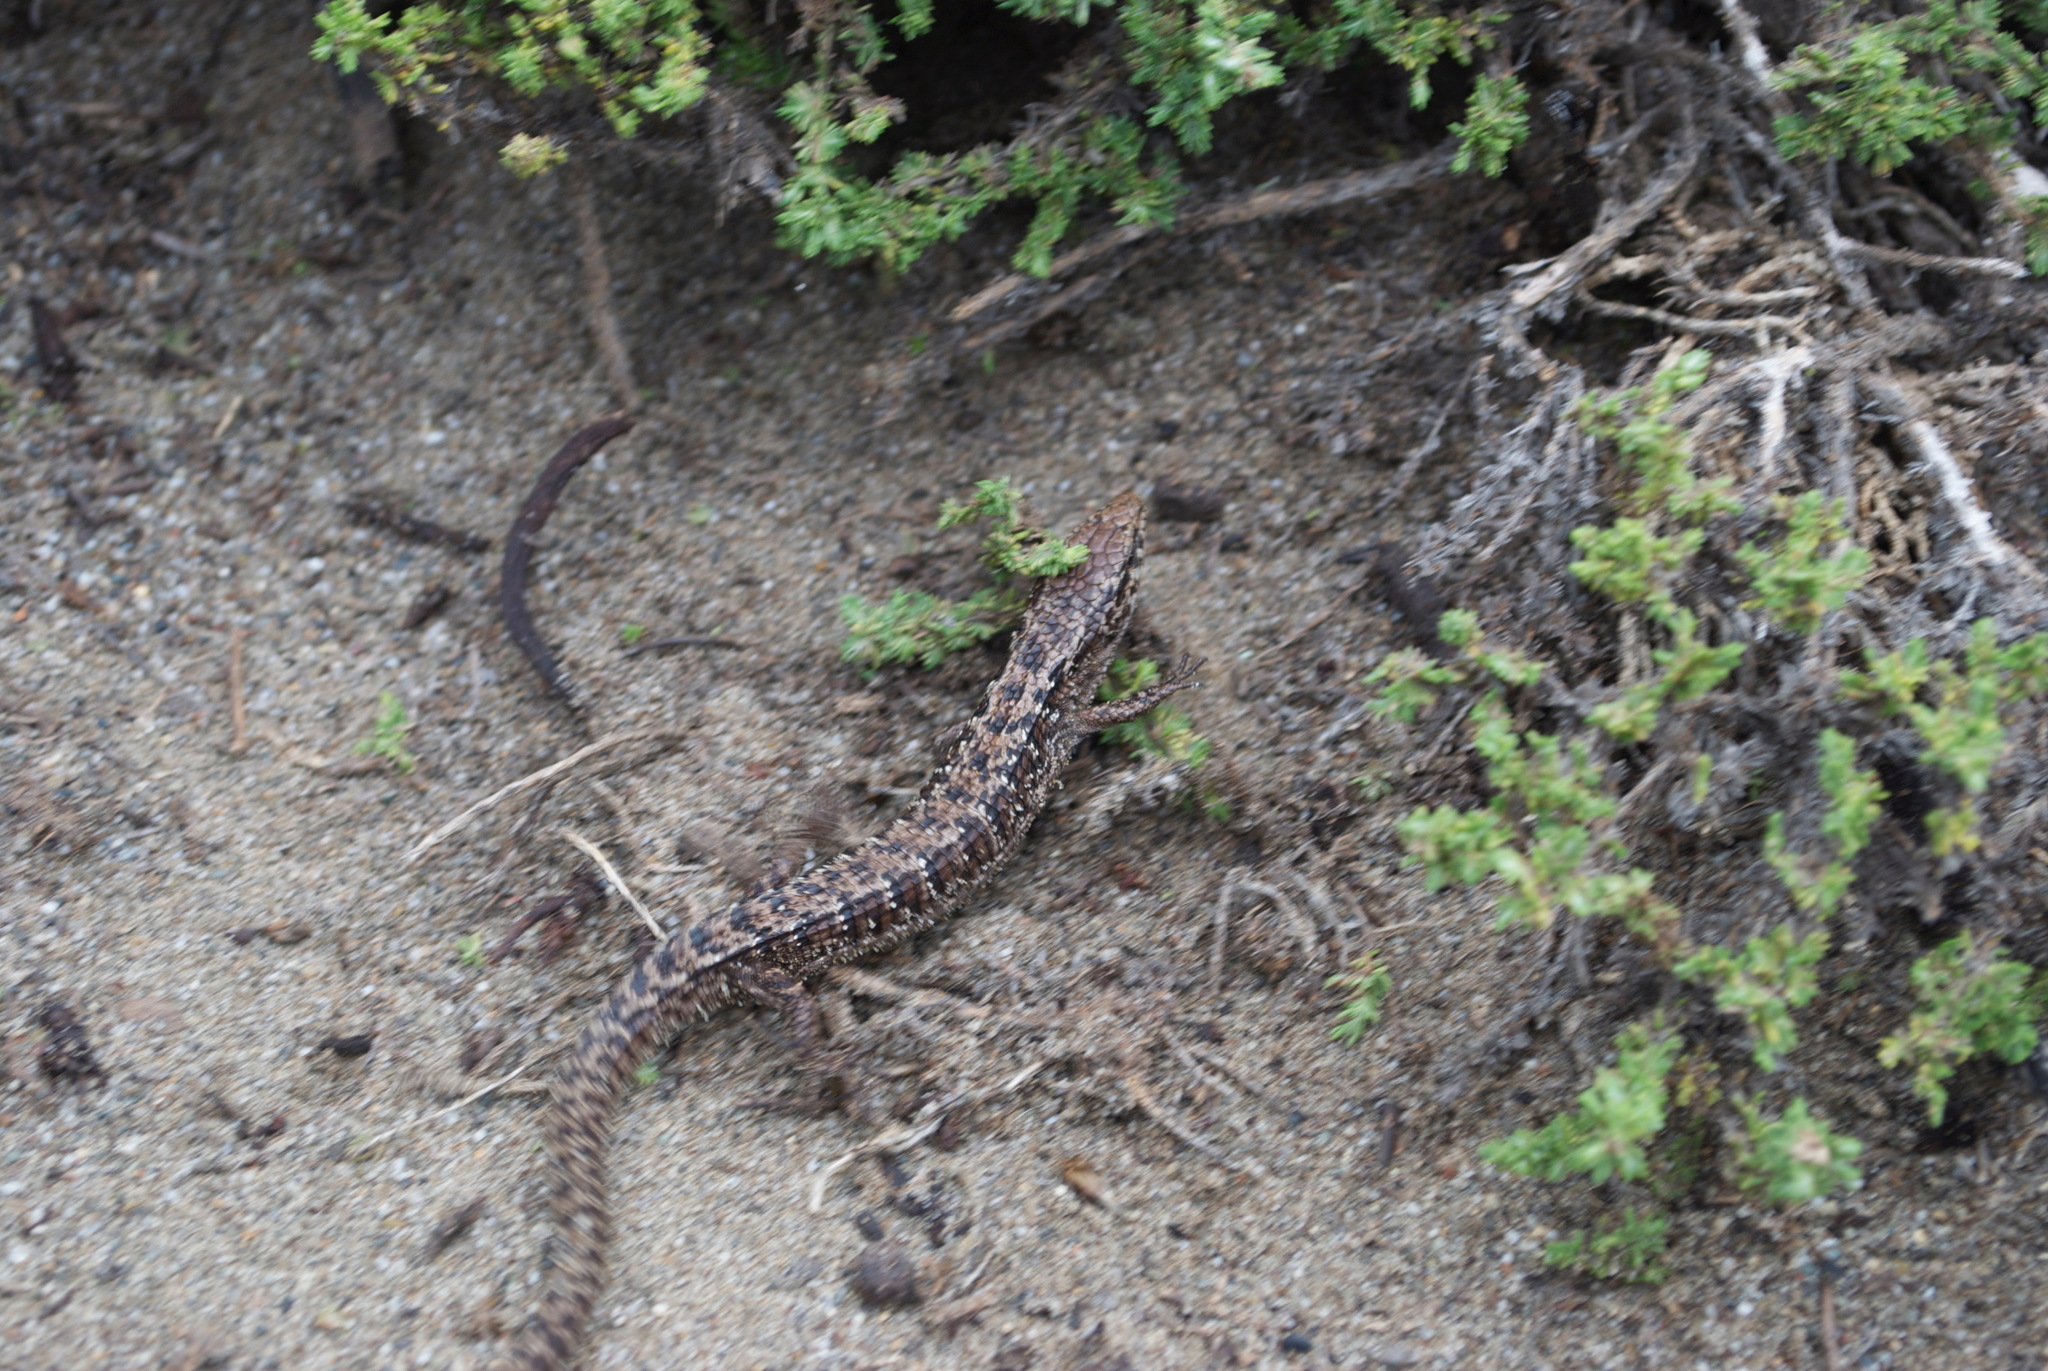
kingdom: Animalia
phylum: Chordata
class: Squamata
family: Anguidae
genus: Elgaria
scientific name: Elgaria coerulea
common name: Northern alligator lizard
